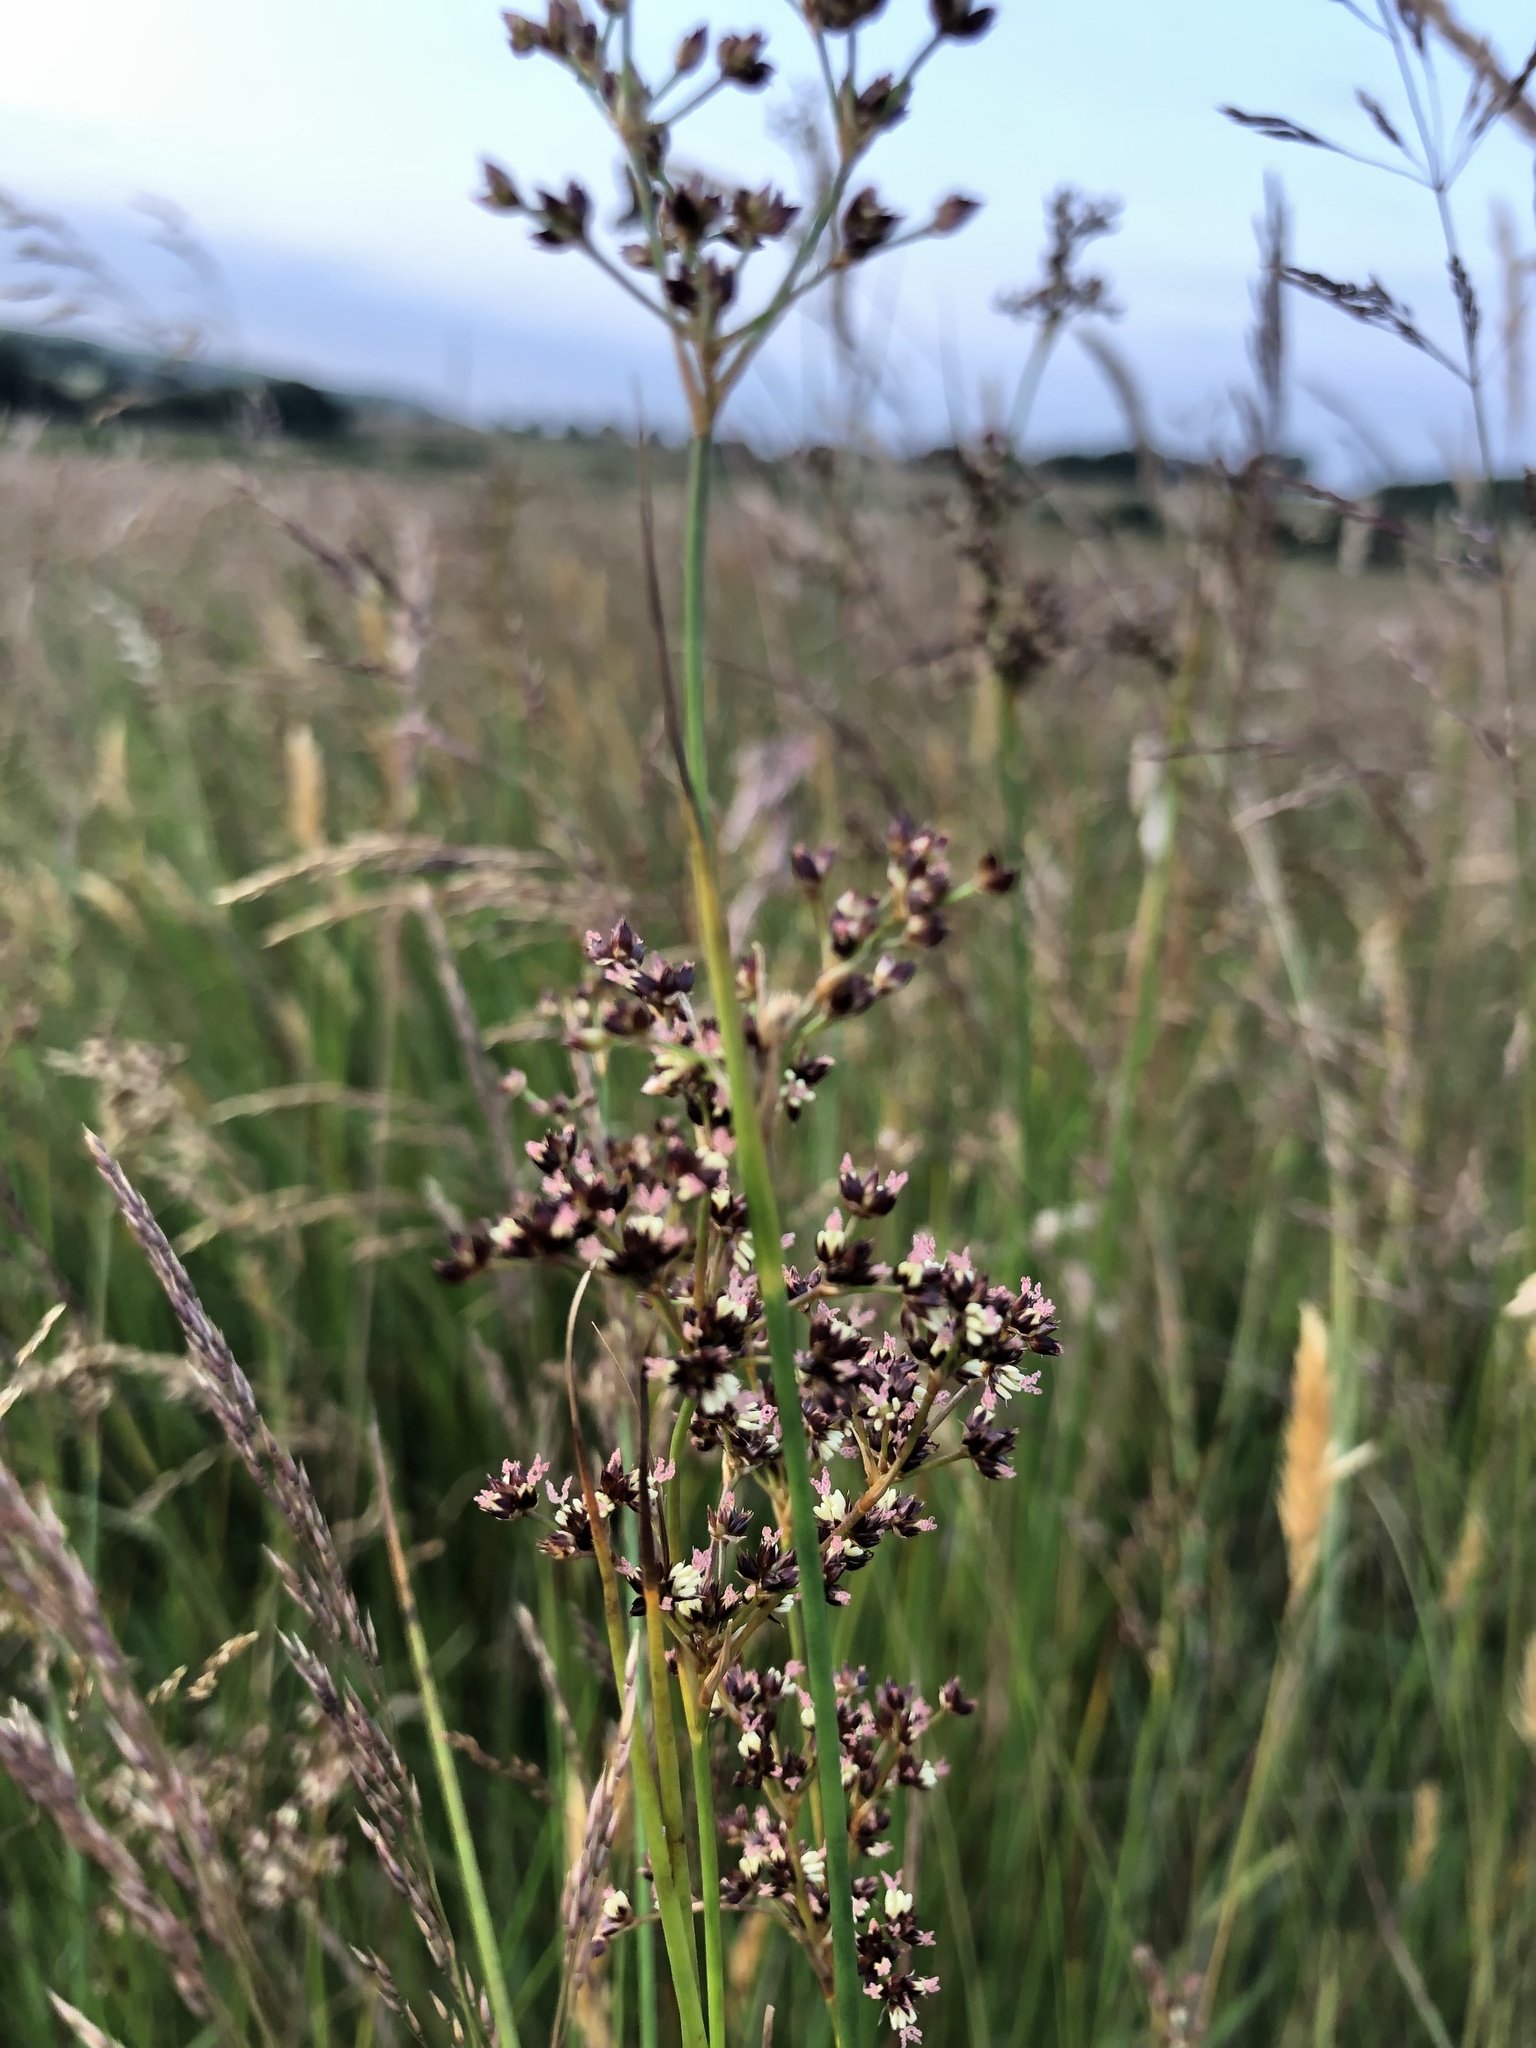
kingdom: Plantae
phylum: Tracheophyta
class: Liliopsida
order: Poales
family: Juncaceae
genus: Juncus
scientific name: Juncus acutiflorus
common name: Sharp-flowered rush
